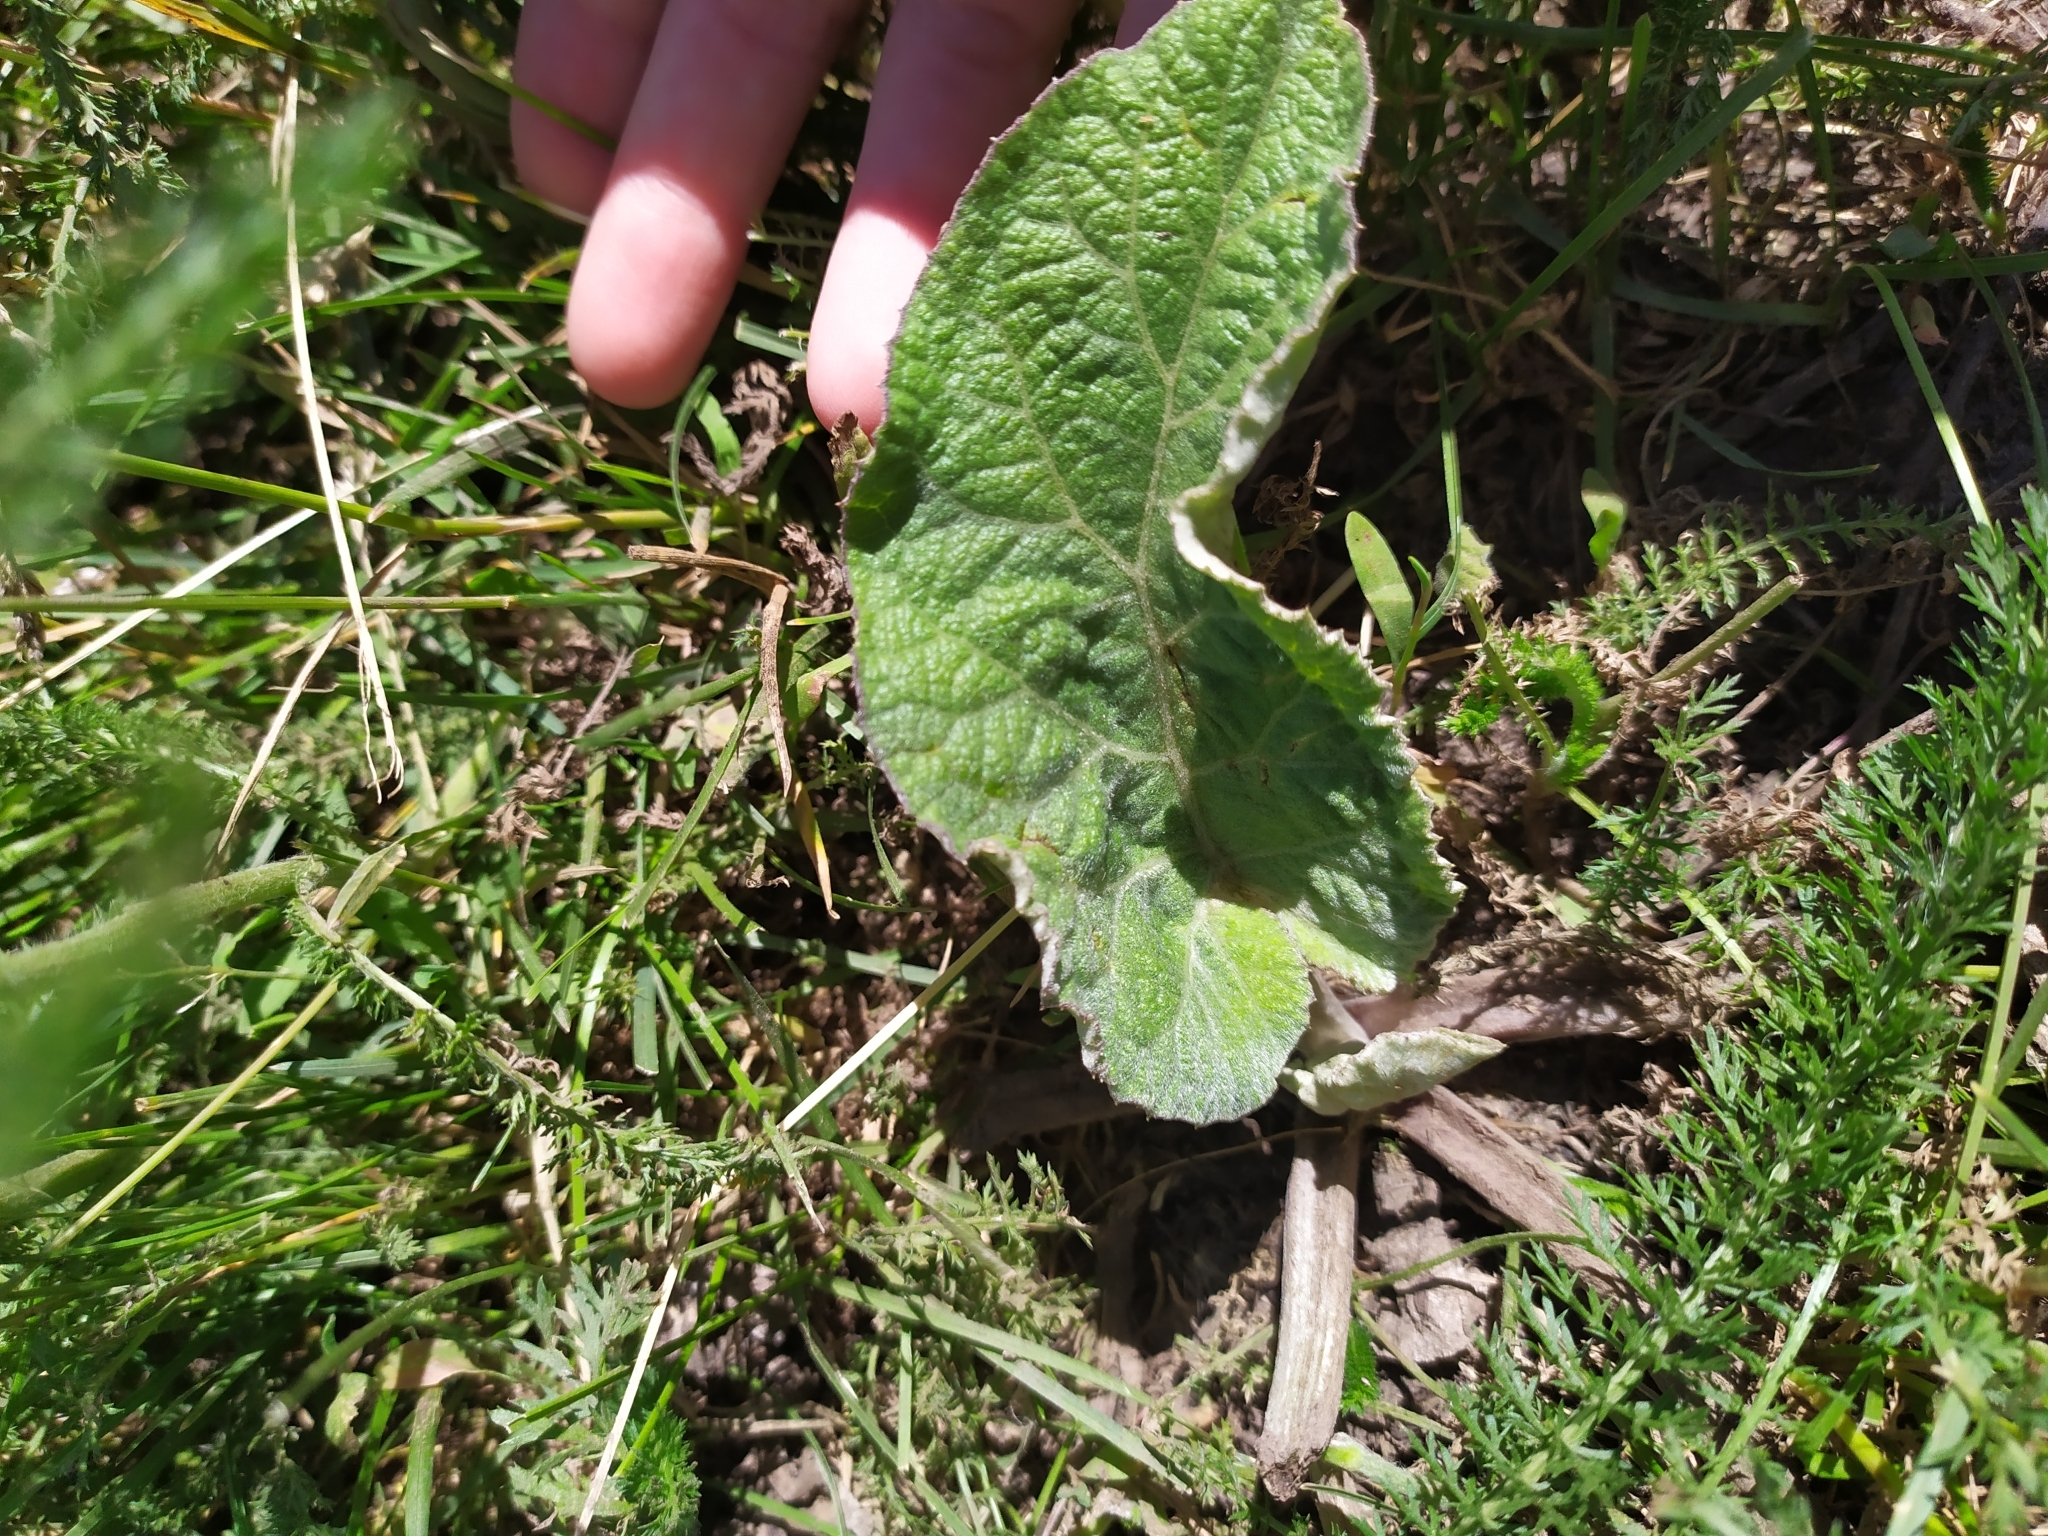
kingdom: Plantae
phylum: Tracheophyta
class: Magnoliopsida
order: Asterales
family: Asteraceae
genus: Arctium
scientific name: Arctium
